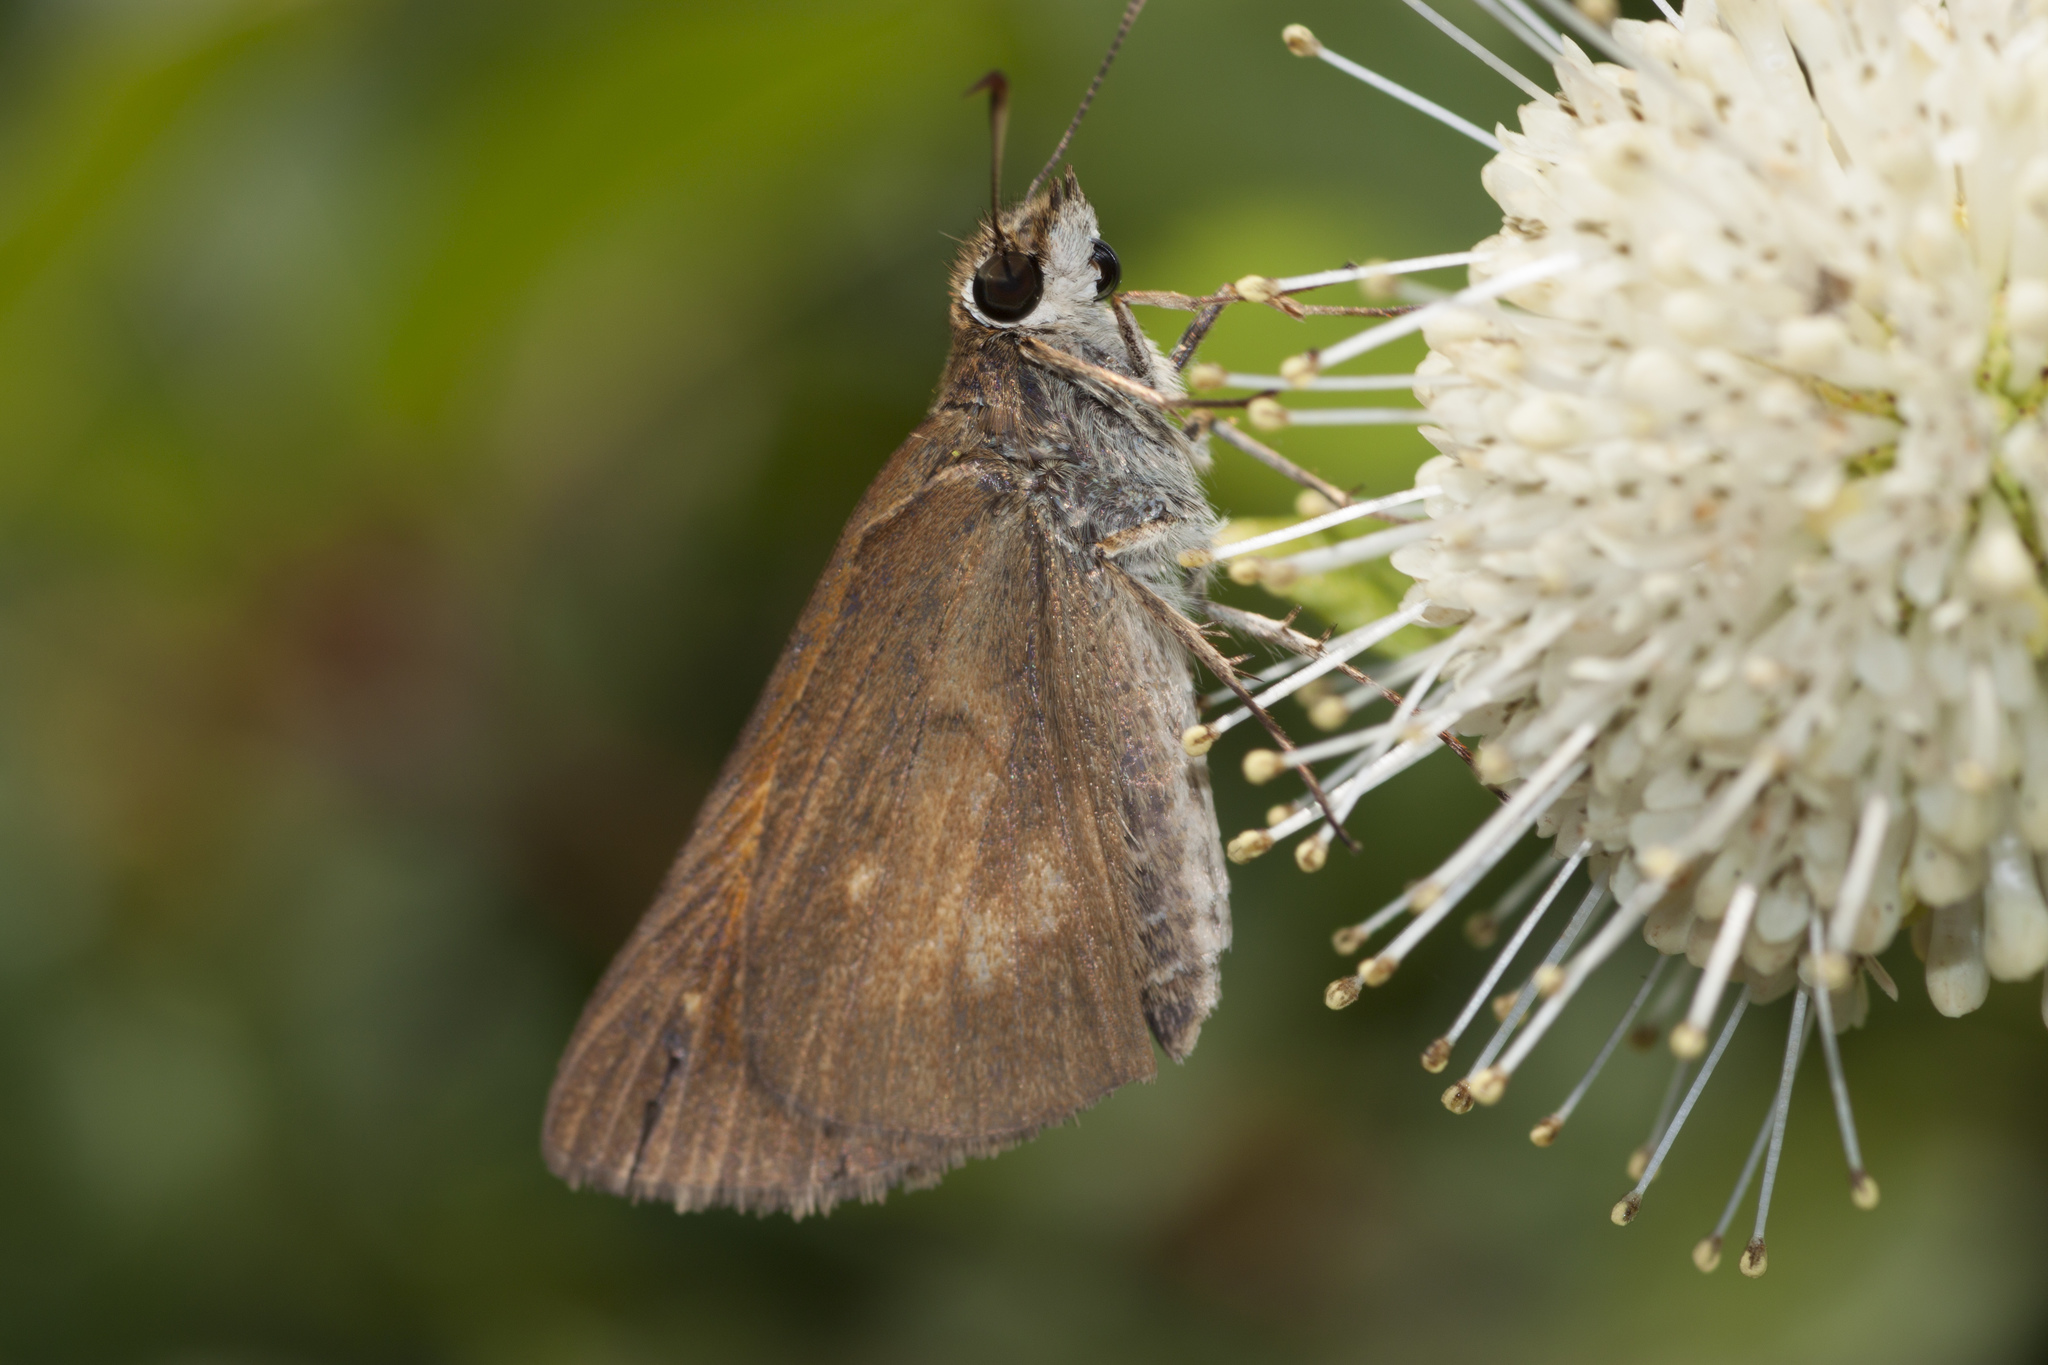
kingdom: Animalia
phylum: Arthropoda
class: Insecta
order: Lepidoptera
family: Hesperiidae
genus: Poanes
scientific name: Poanes viator
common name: Broad-winged skipper
